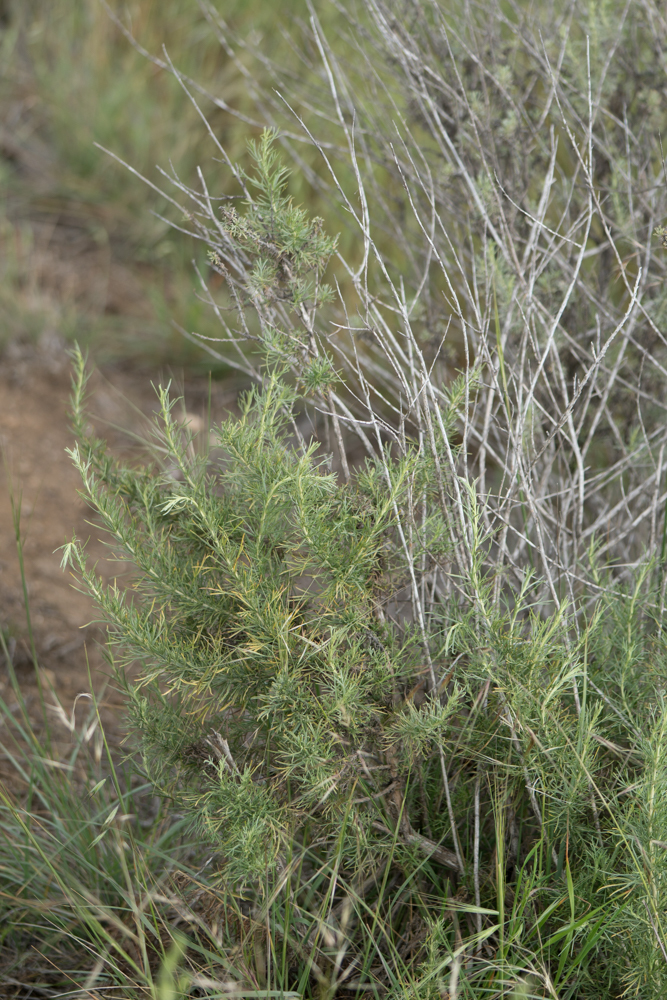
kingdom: Plantae
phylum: Tracheophyta
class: Magnoliopsida
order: Asterales
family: Asteraceae
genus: Artemisia
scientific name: Artemisia californica
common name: California sagebrush
